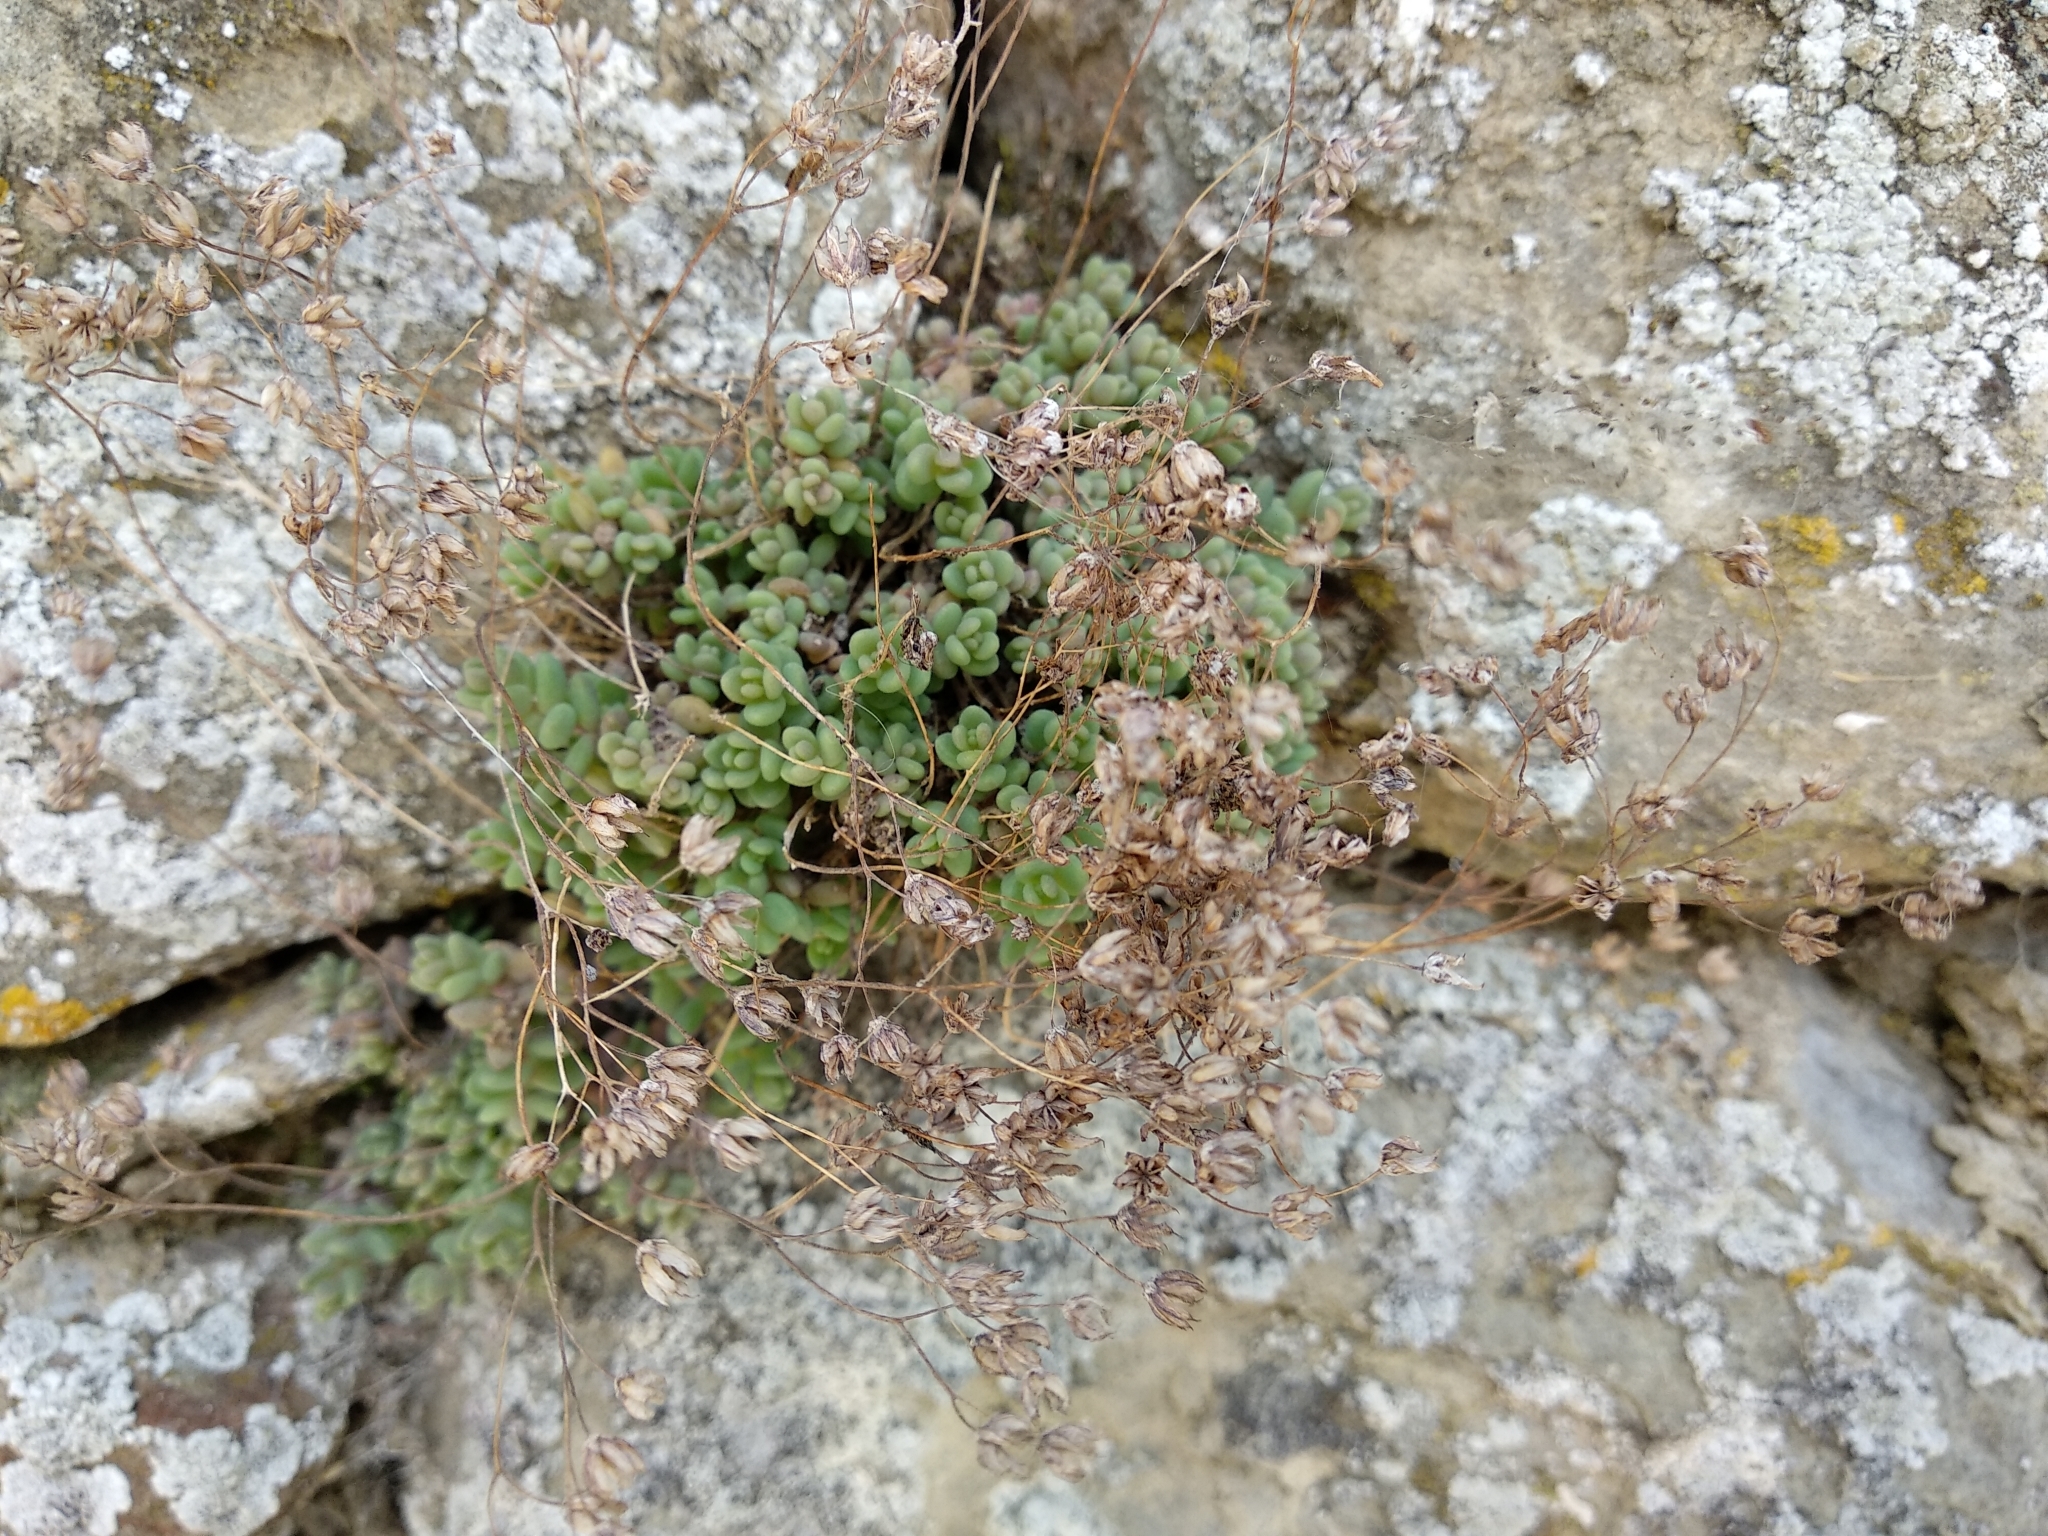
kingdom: Plantae
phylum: Tracheophyta
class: Magnoliopsida
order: Saxifragales
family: Crassulaceae
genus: Sedum
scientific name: Sedum dasyphyllum
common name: Thick-leaf stonecrop
